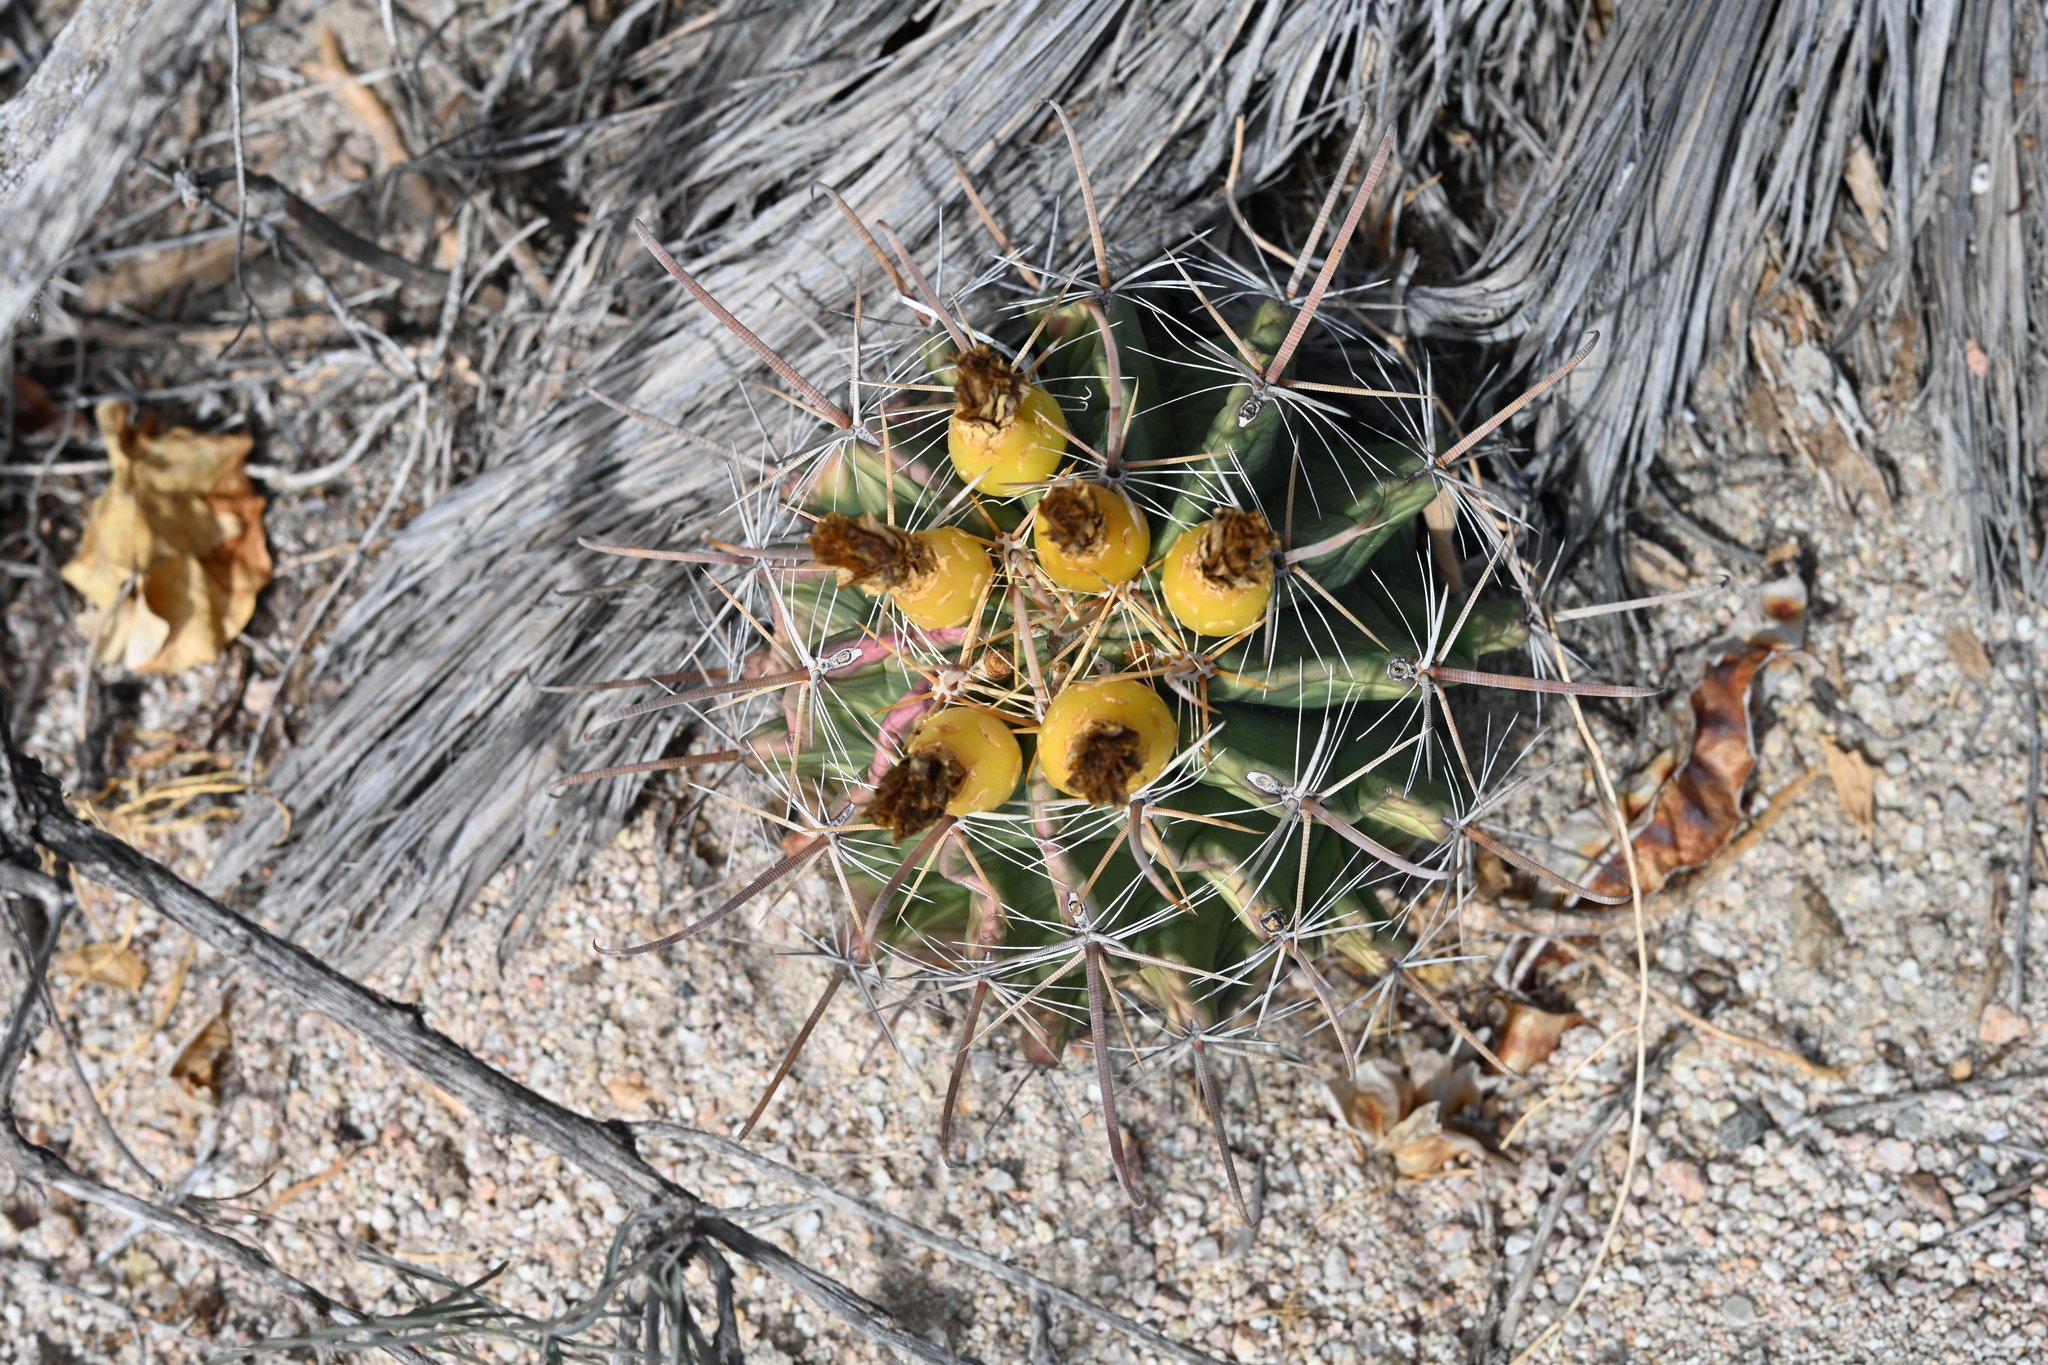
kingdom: Plantae
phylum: Tracheophyta
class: Magnoliopsida
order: Caryophyllales
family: Cactaceae
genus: Ferocactus
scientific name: Ferocactus townsendianus
